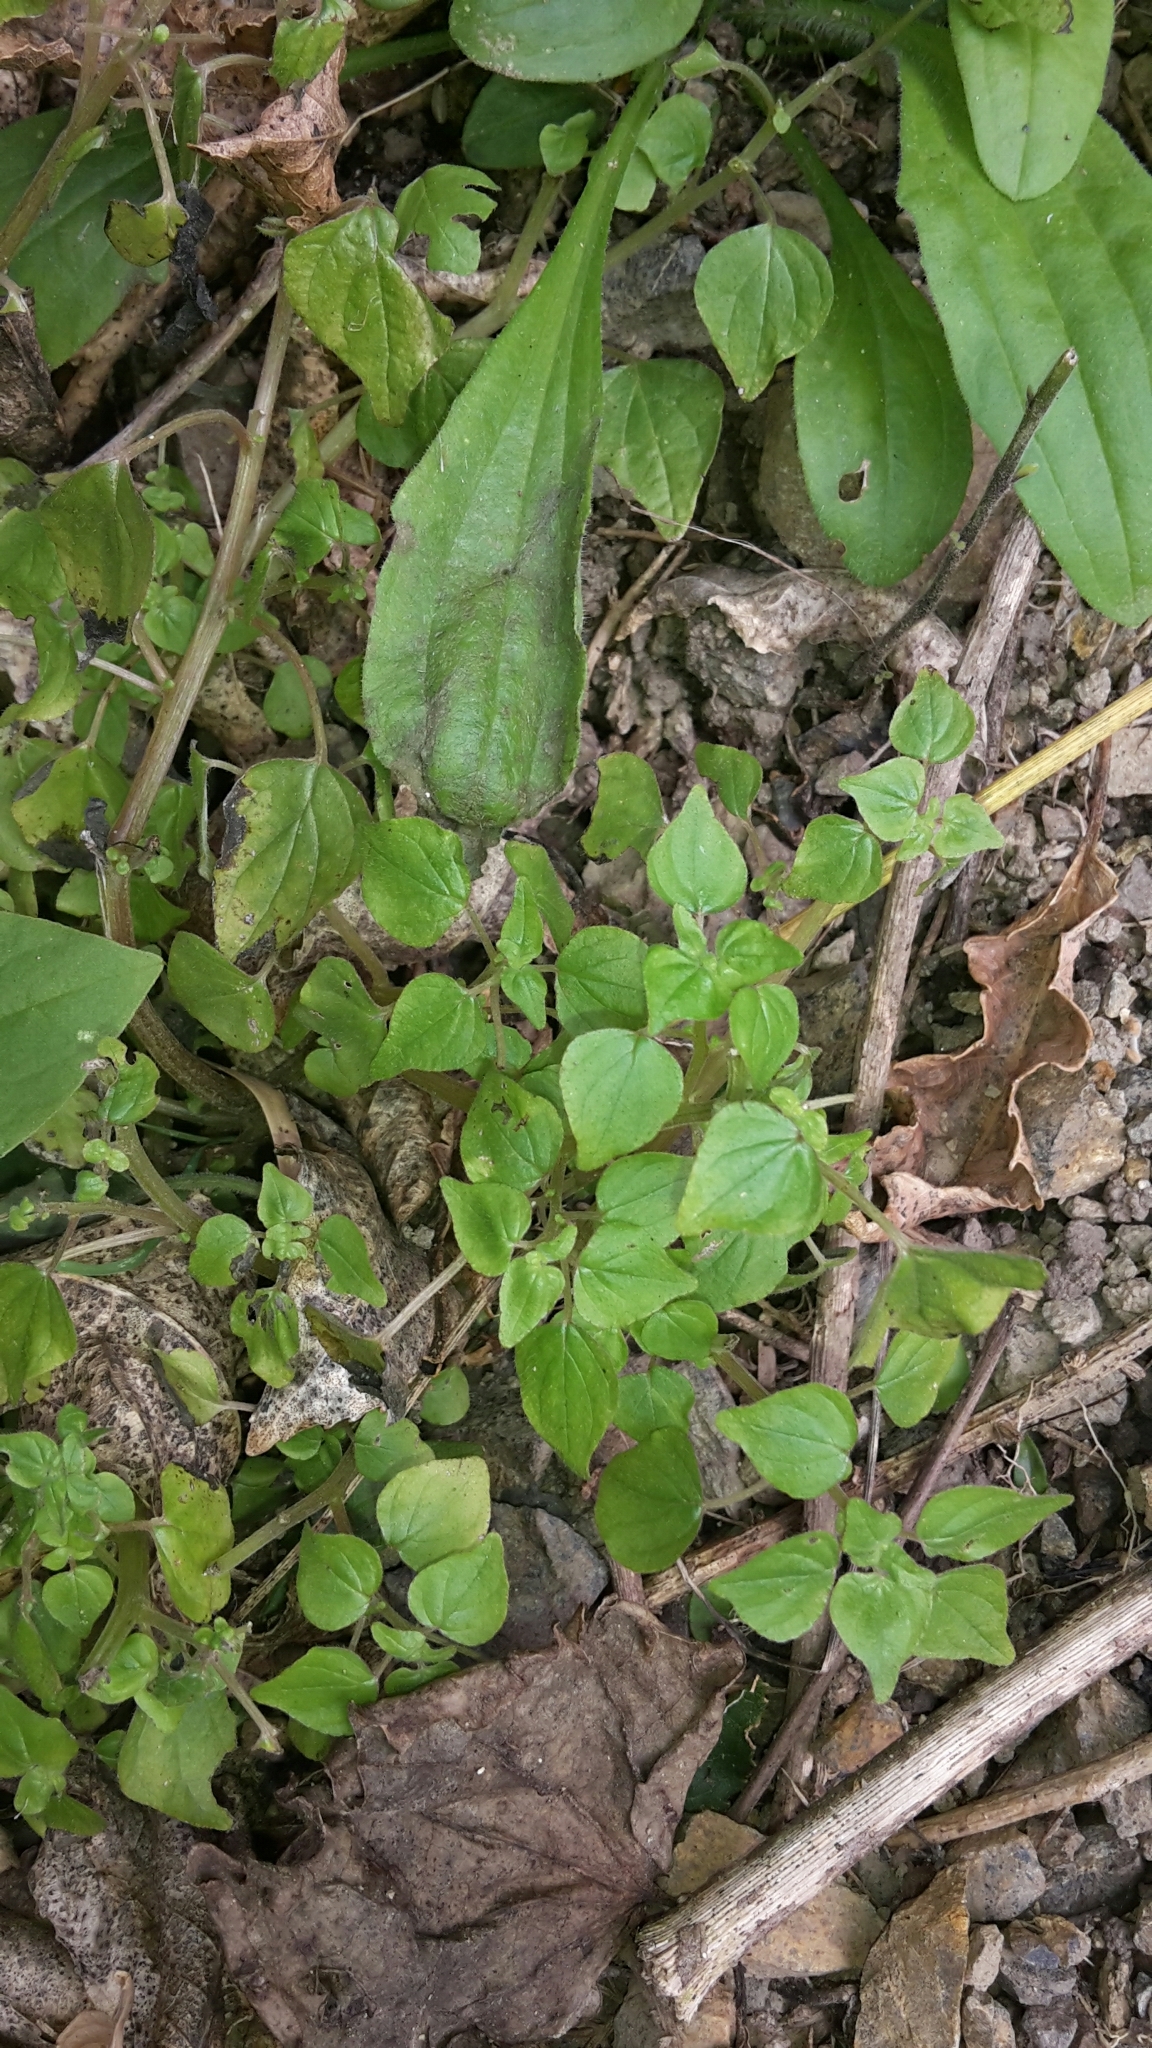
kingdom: Plantae
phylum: Tracheophyta
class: Magnoliopsida
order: Rosales
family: Urticaceae
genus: Parietaria
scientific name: Parietaria debilis
